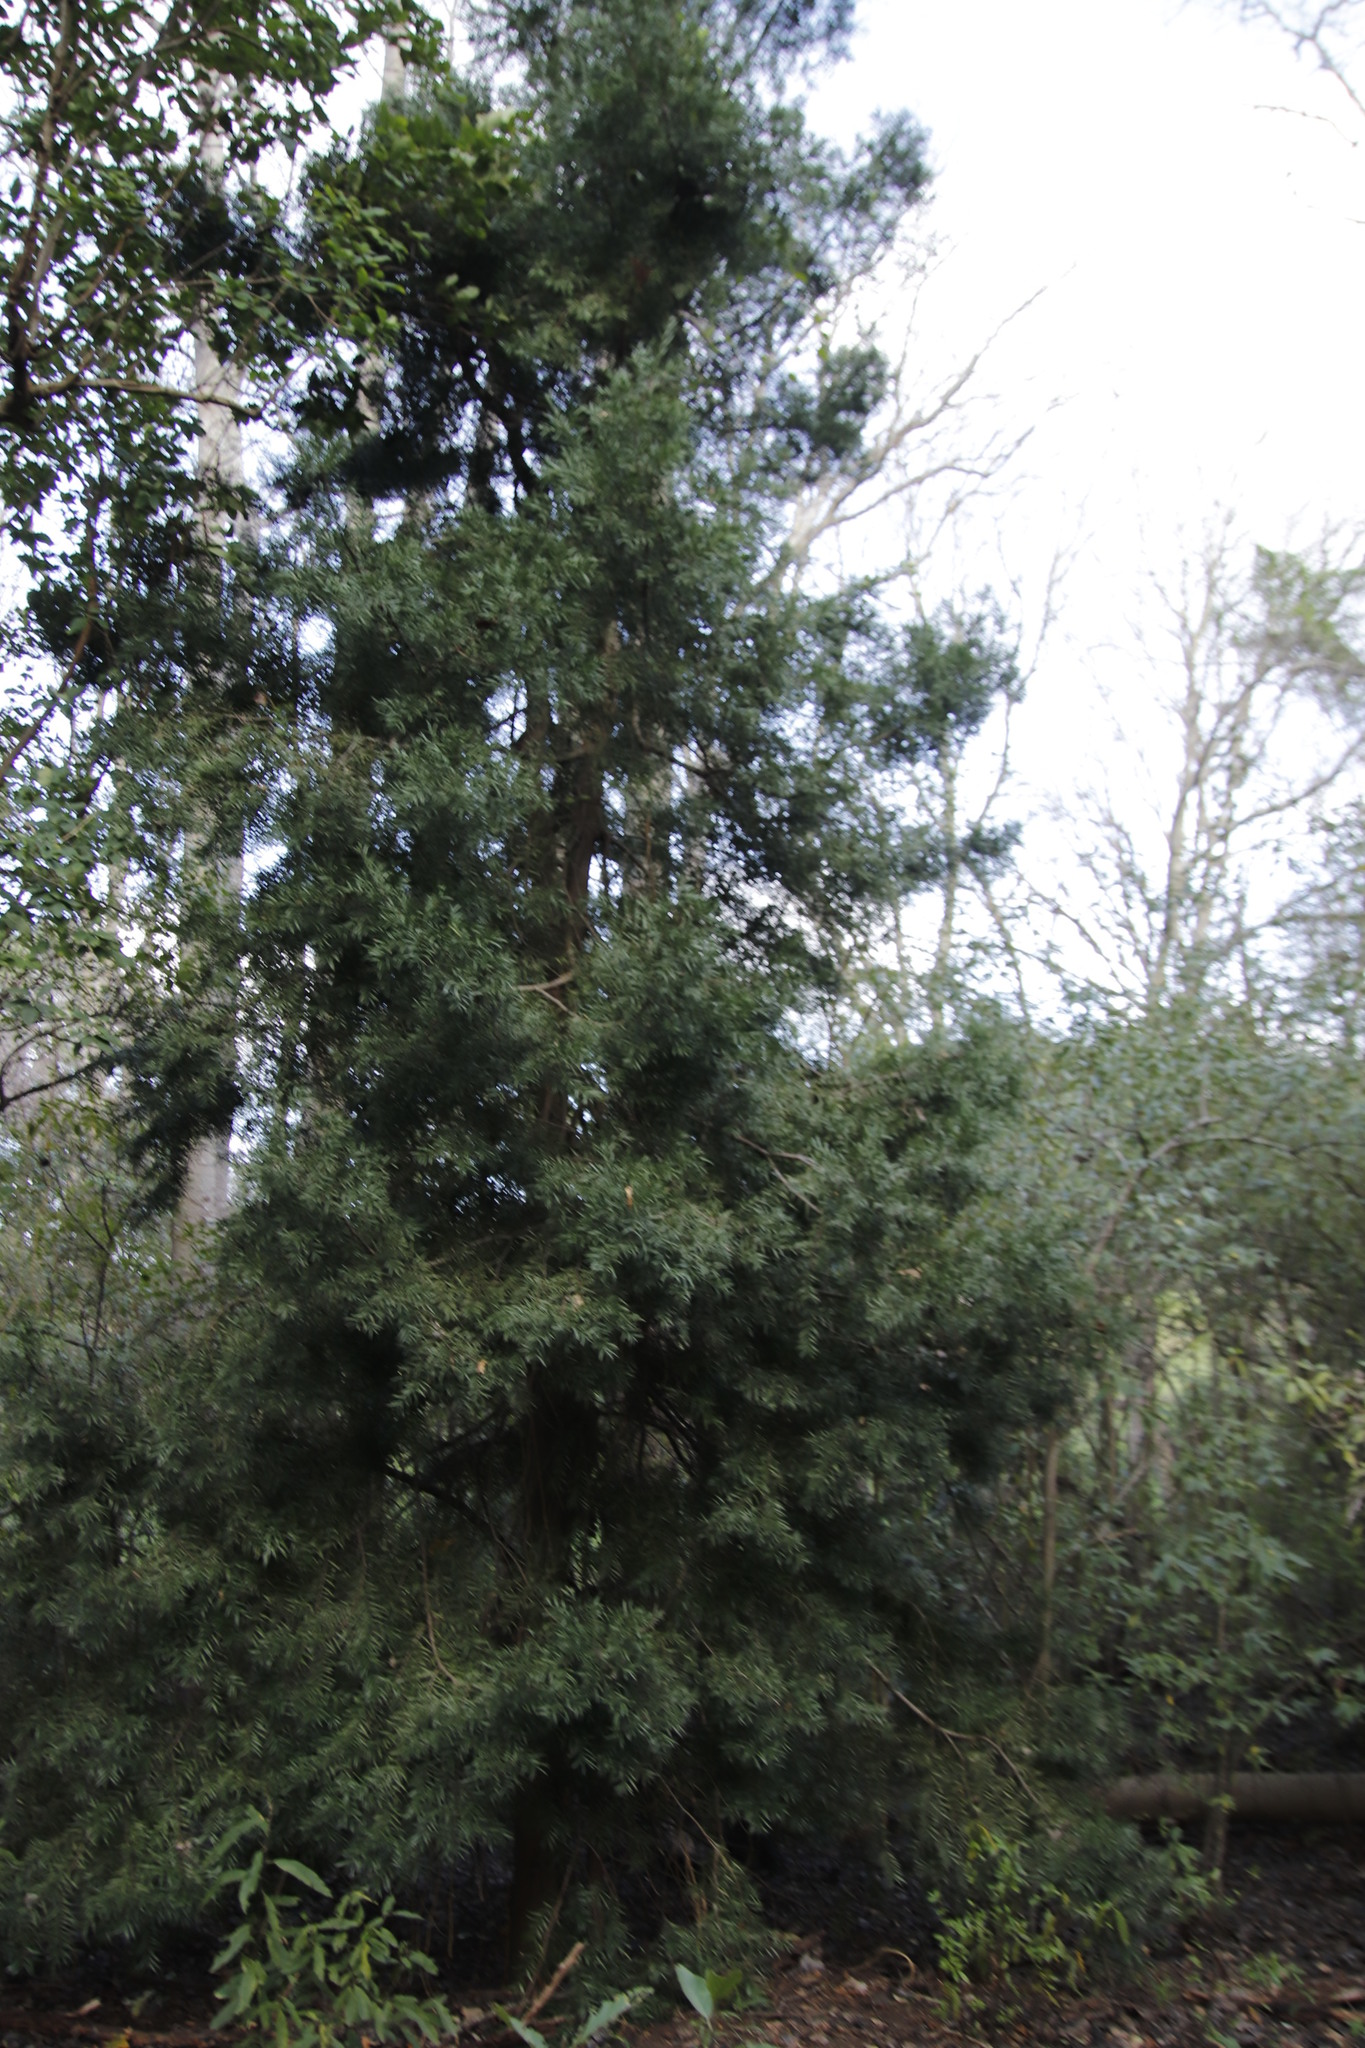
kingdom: Plantae
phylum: Tracheophyta
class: Pinopsida
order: Pinales
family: Podocarpaceae
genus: Afrocarpus
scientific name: Afrocarpus falcatus
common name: Bastard yellowwood
